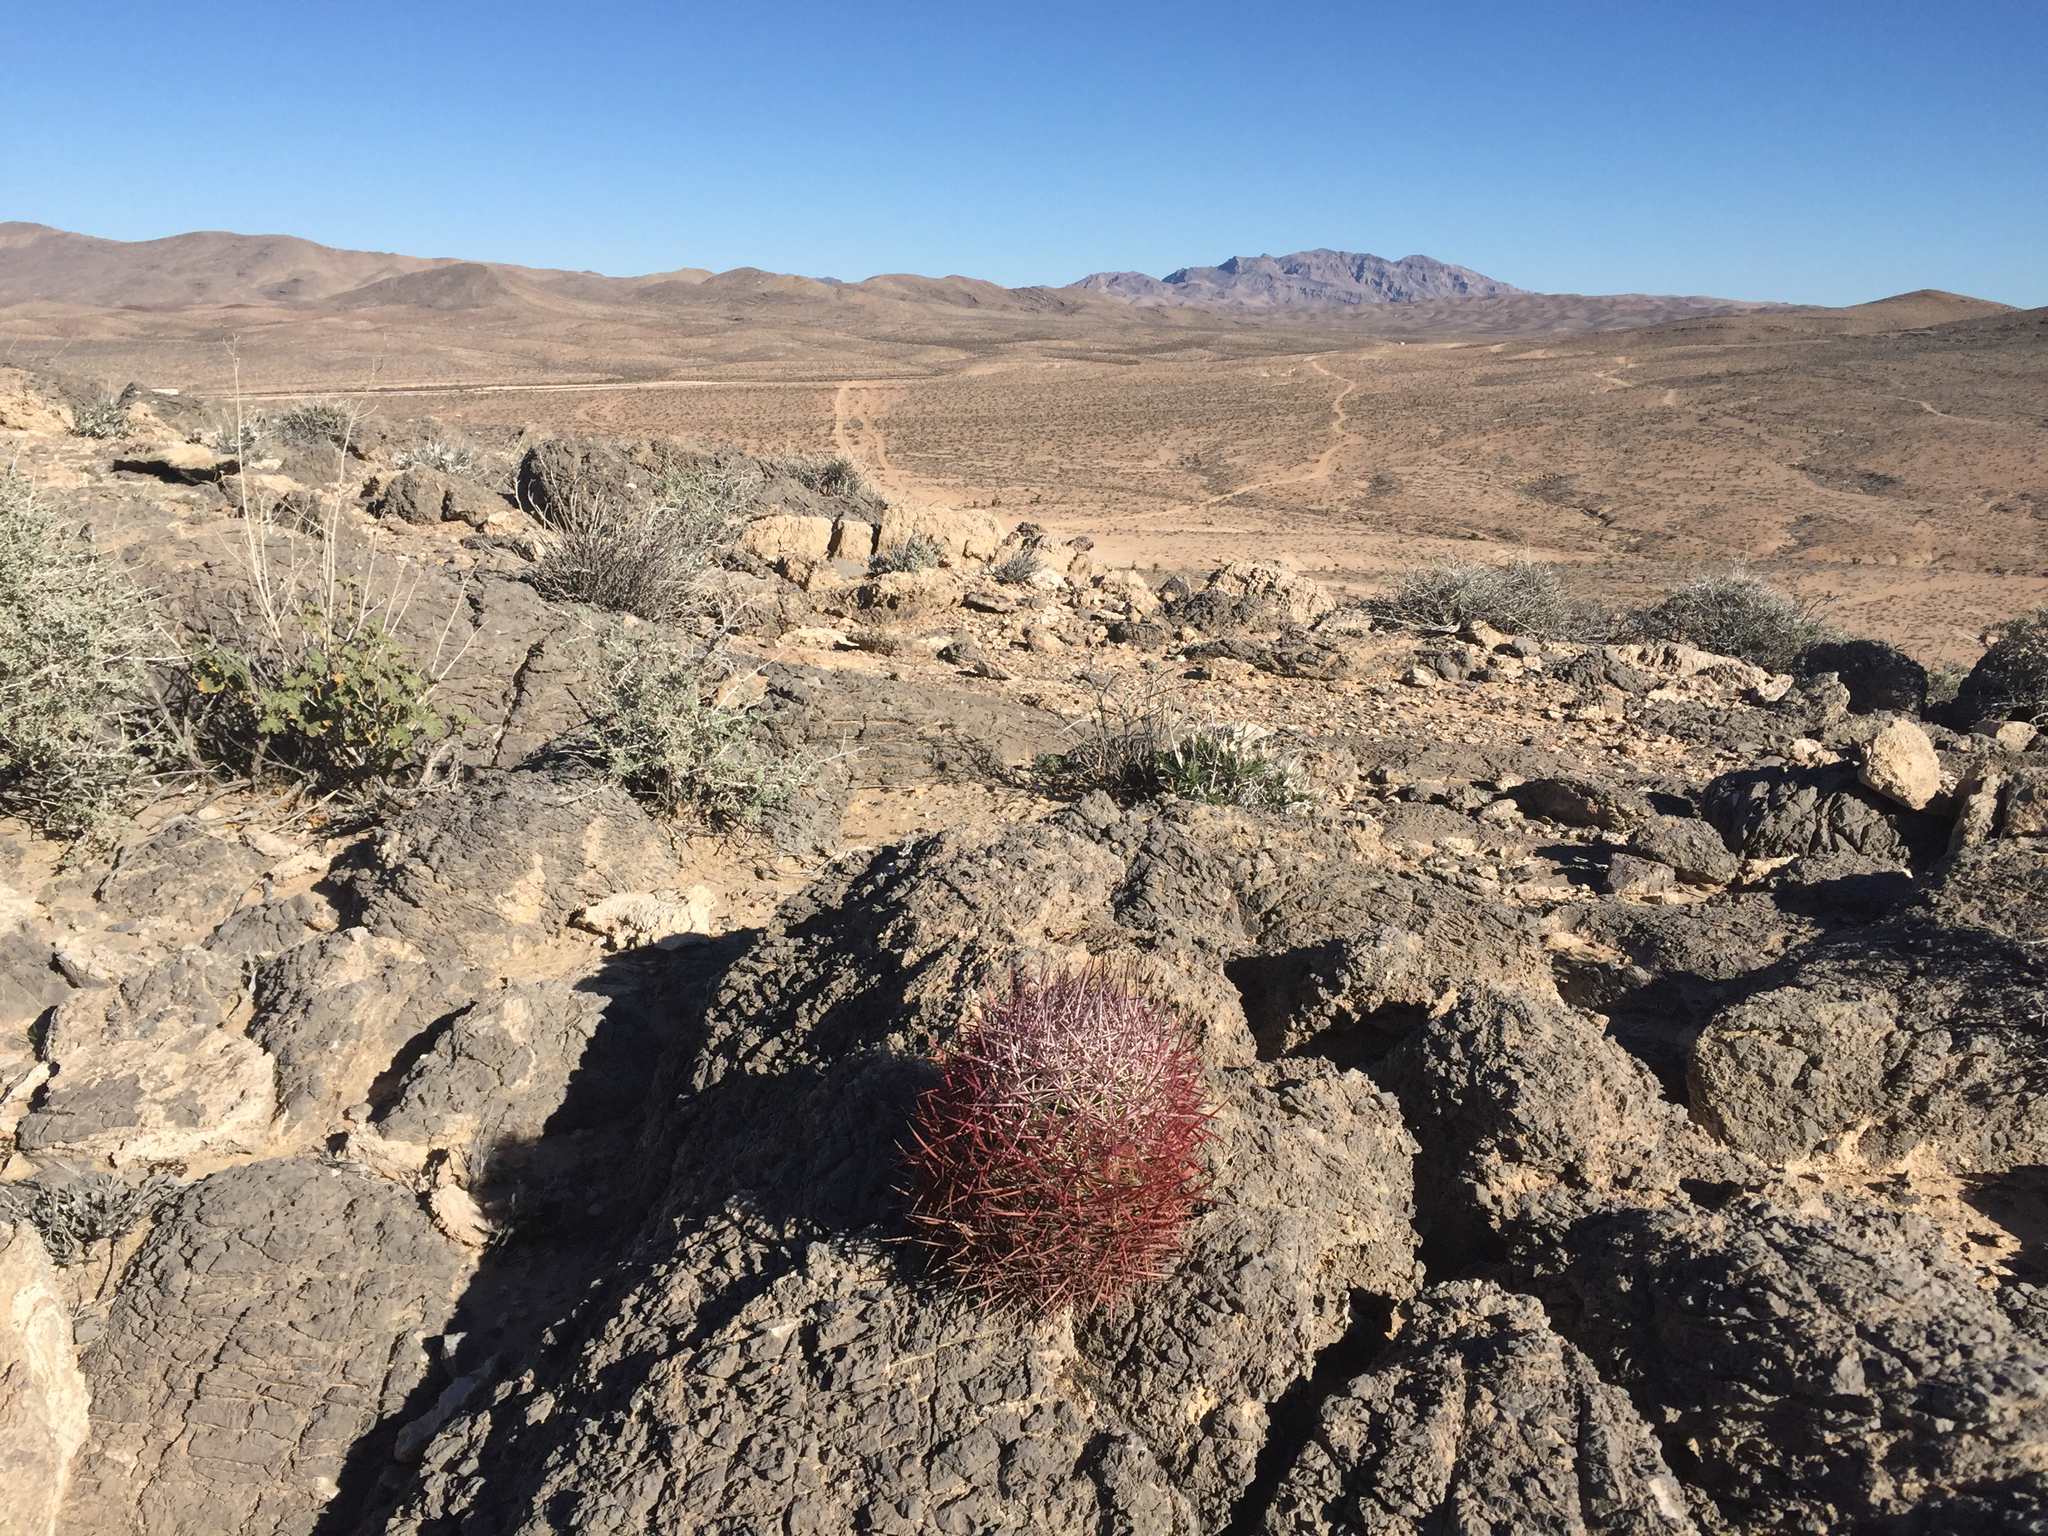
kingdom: Plantae
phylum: Tracheophyta
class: Magnoliopsida
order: Caryophyllales
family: Cactaceae
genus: Sclerocactus
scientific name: Sclerocactus johnsonii
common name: Eight-spine fishhook cactus
